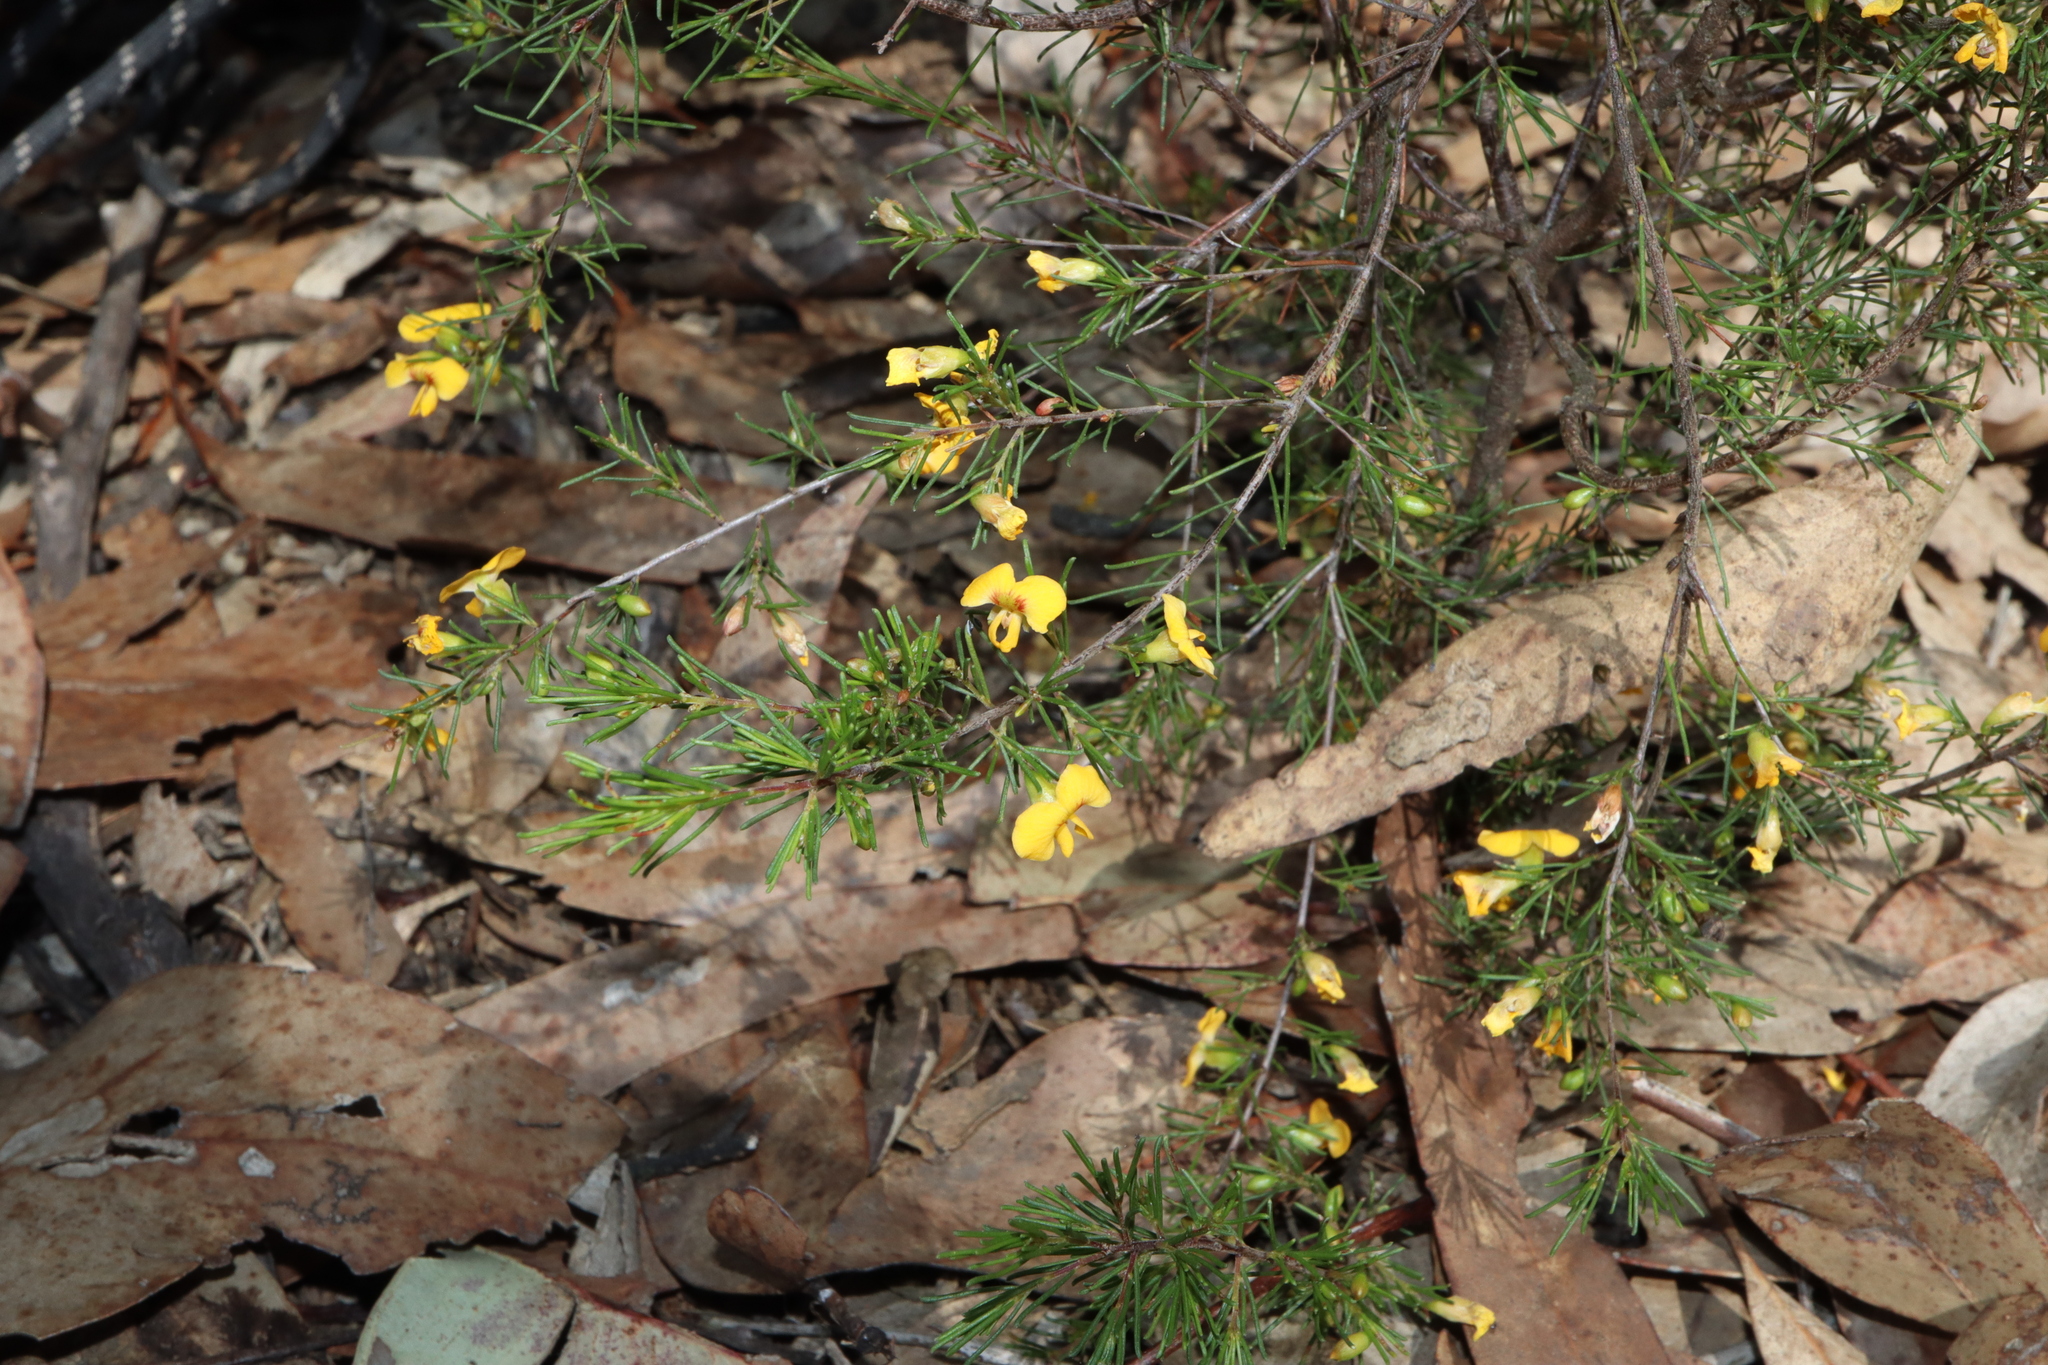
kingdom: Plantae
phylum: Tracheophyta
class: Magnoliopsida
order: Fabales
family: Fabaceae
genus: Dillwynia
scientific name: Dillwynia tenuifolia
